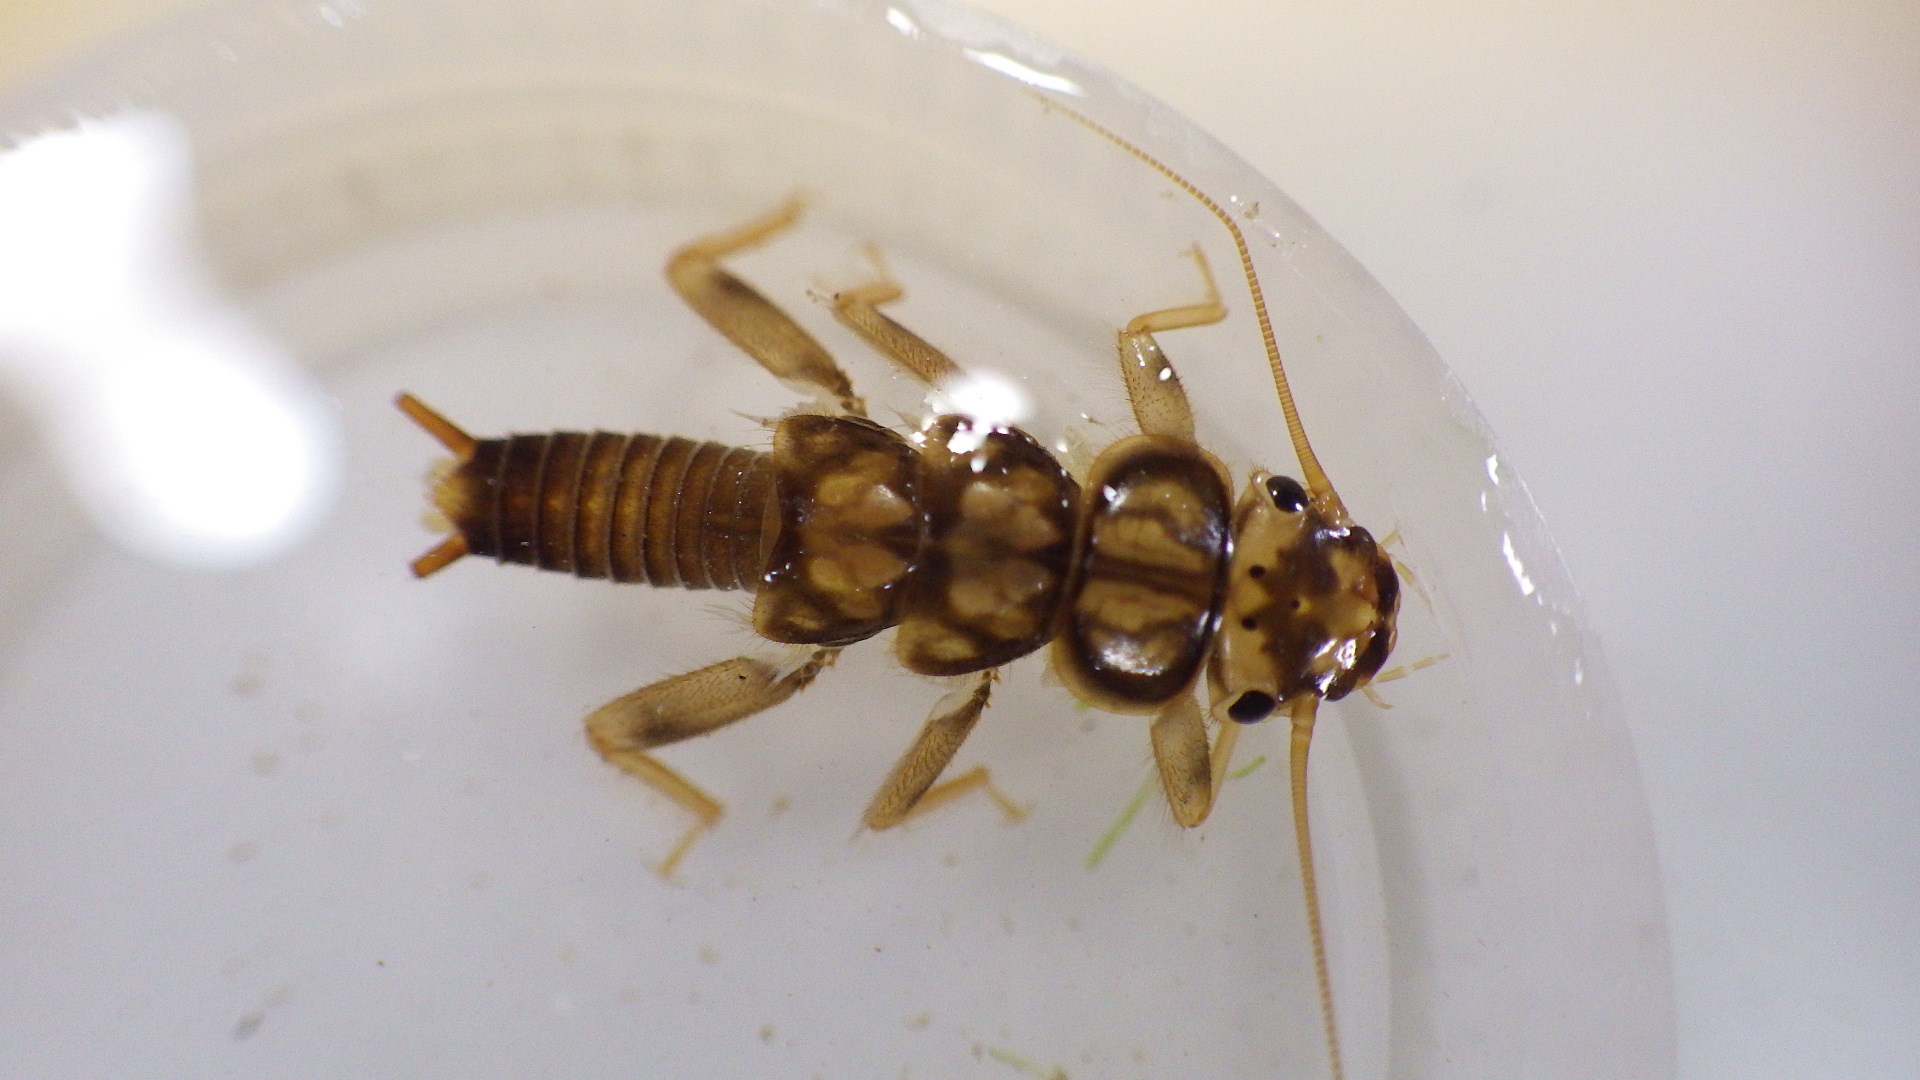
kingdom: Animalia
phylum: Arthropoda
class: Insecta
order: Plecoptera
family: Perlidae
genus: Eccoptura
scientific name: Eccoptura xanthenes
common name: Yellow stone
